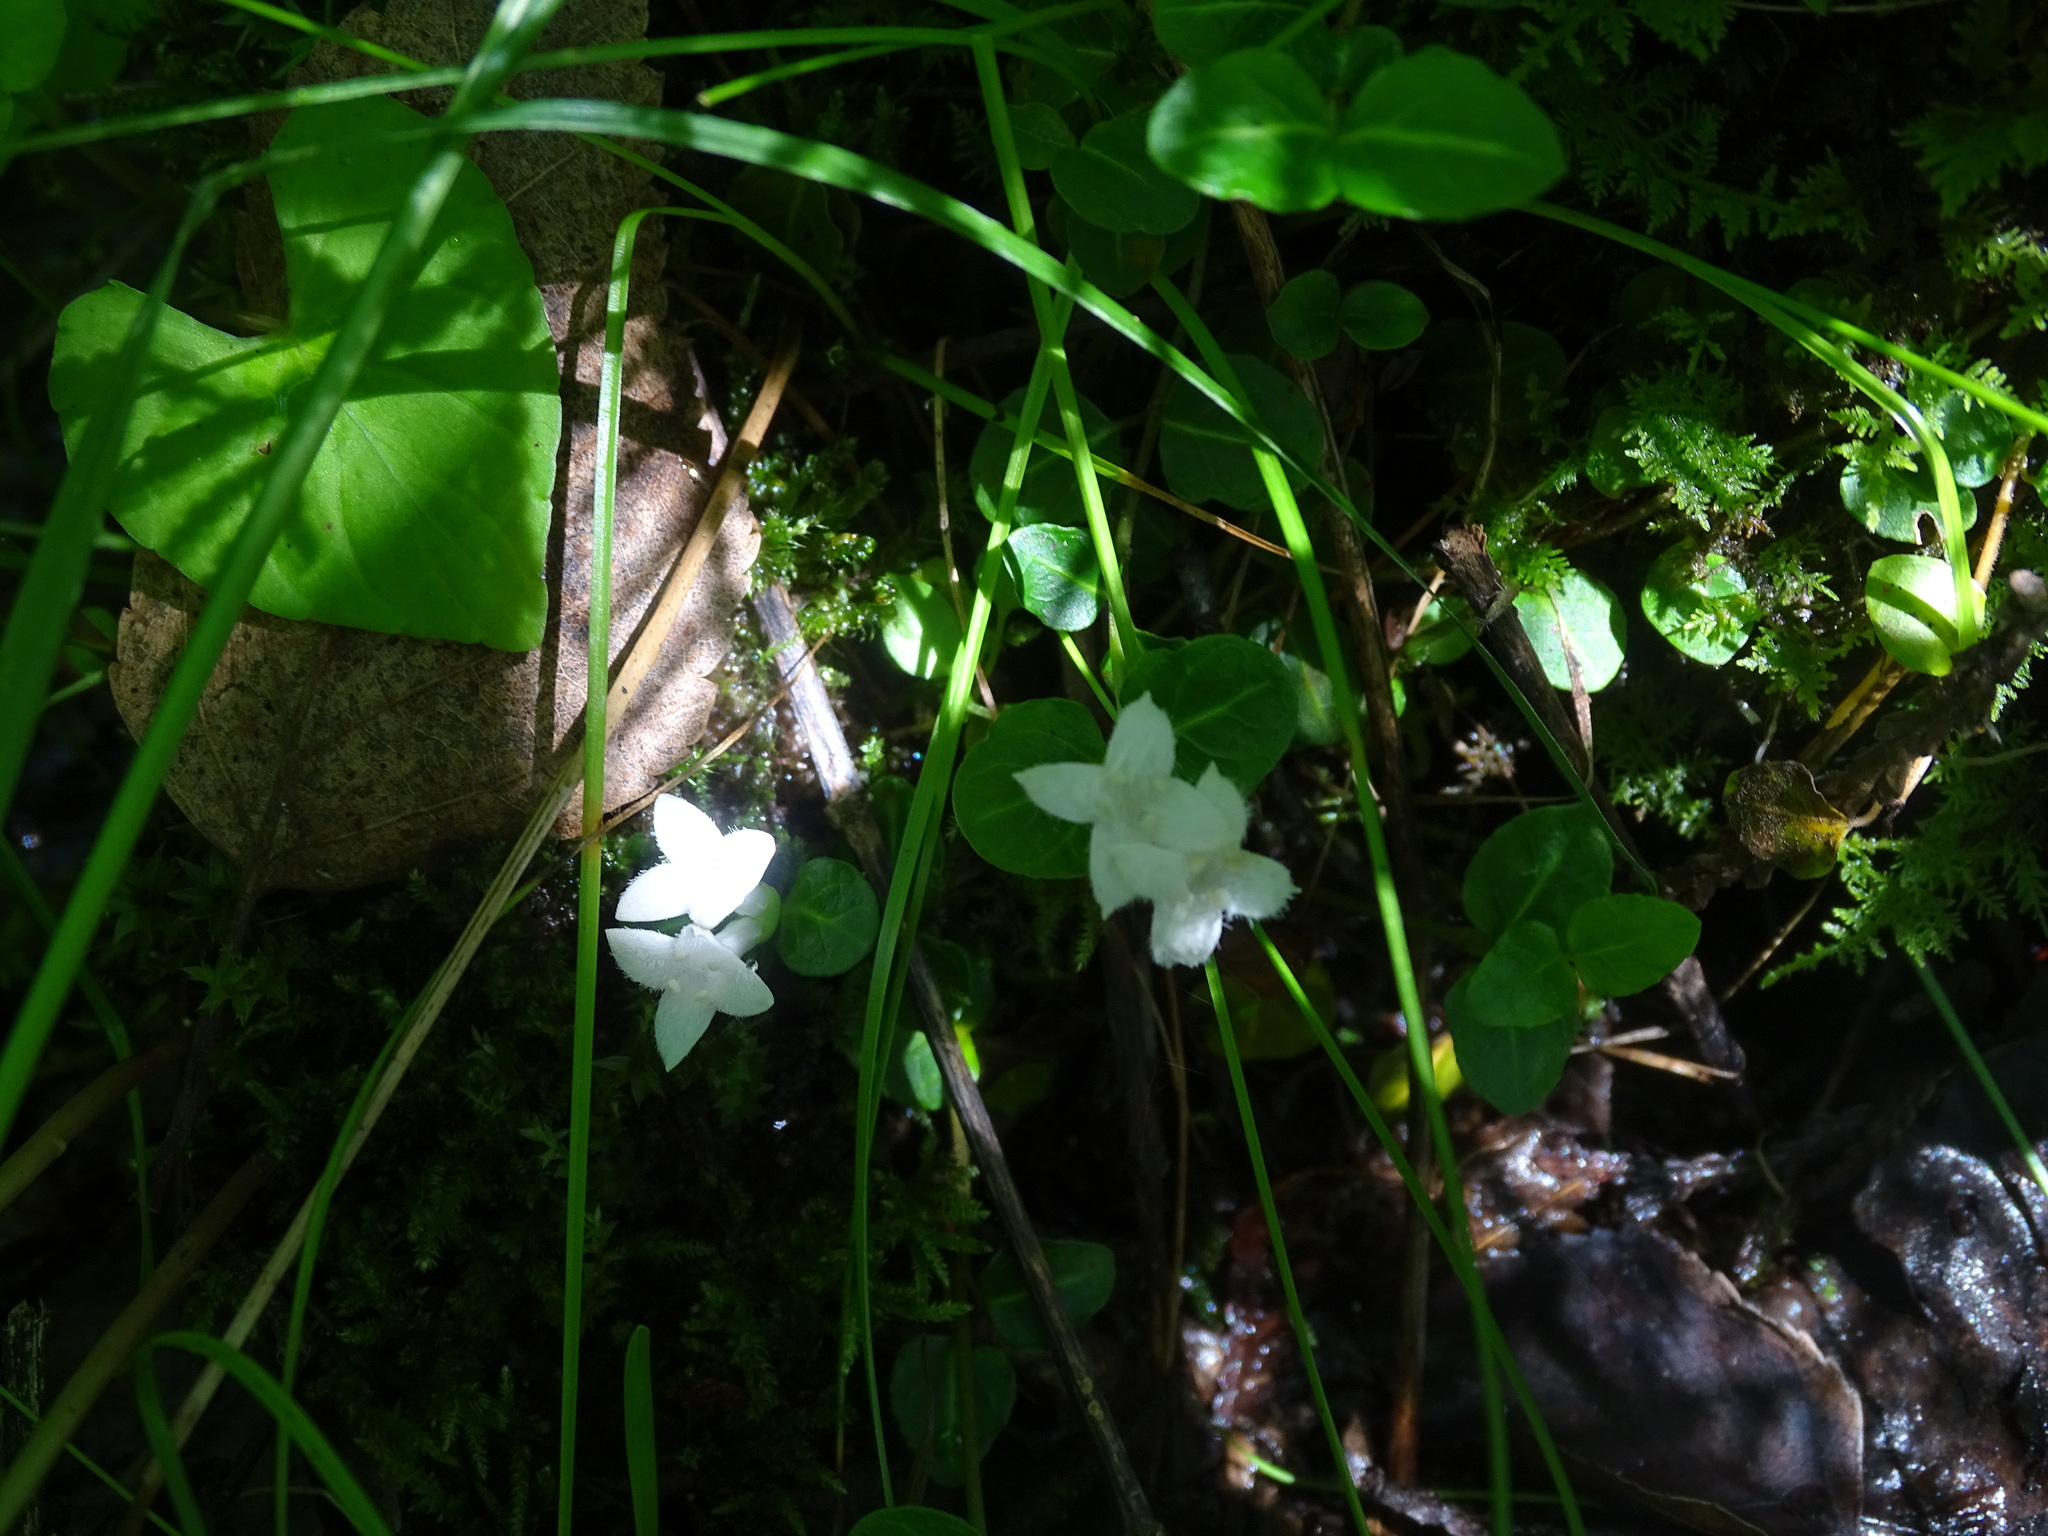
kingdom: Plantae
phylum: Tracheophyta
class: Magnoliopsida
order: Gentianales
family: Rubiaceae
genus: Mitchella
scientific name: Mitchella repens
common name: Partridge-berry
